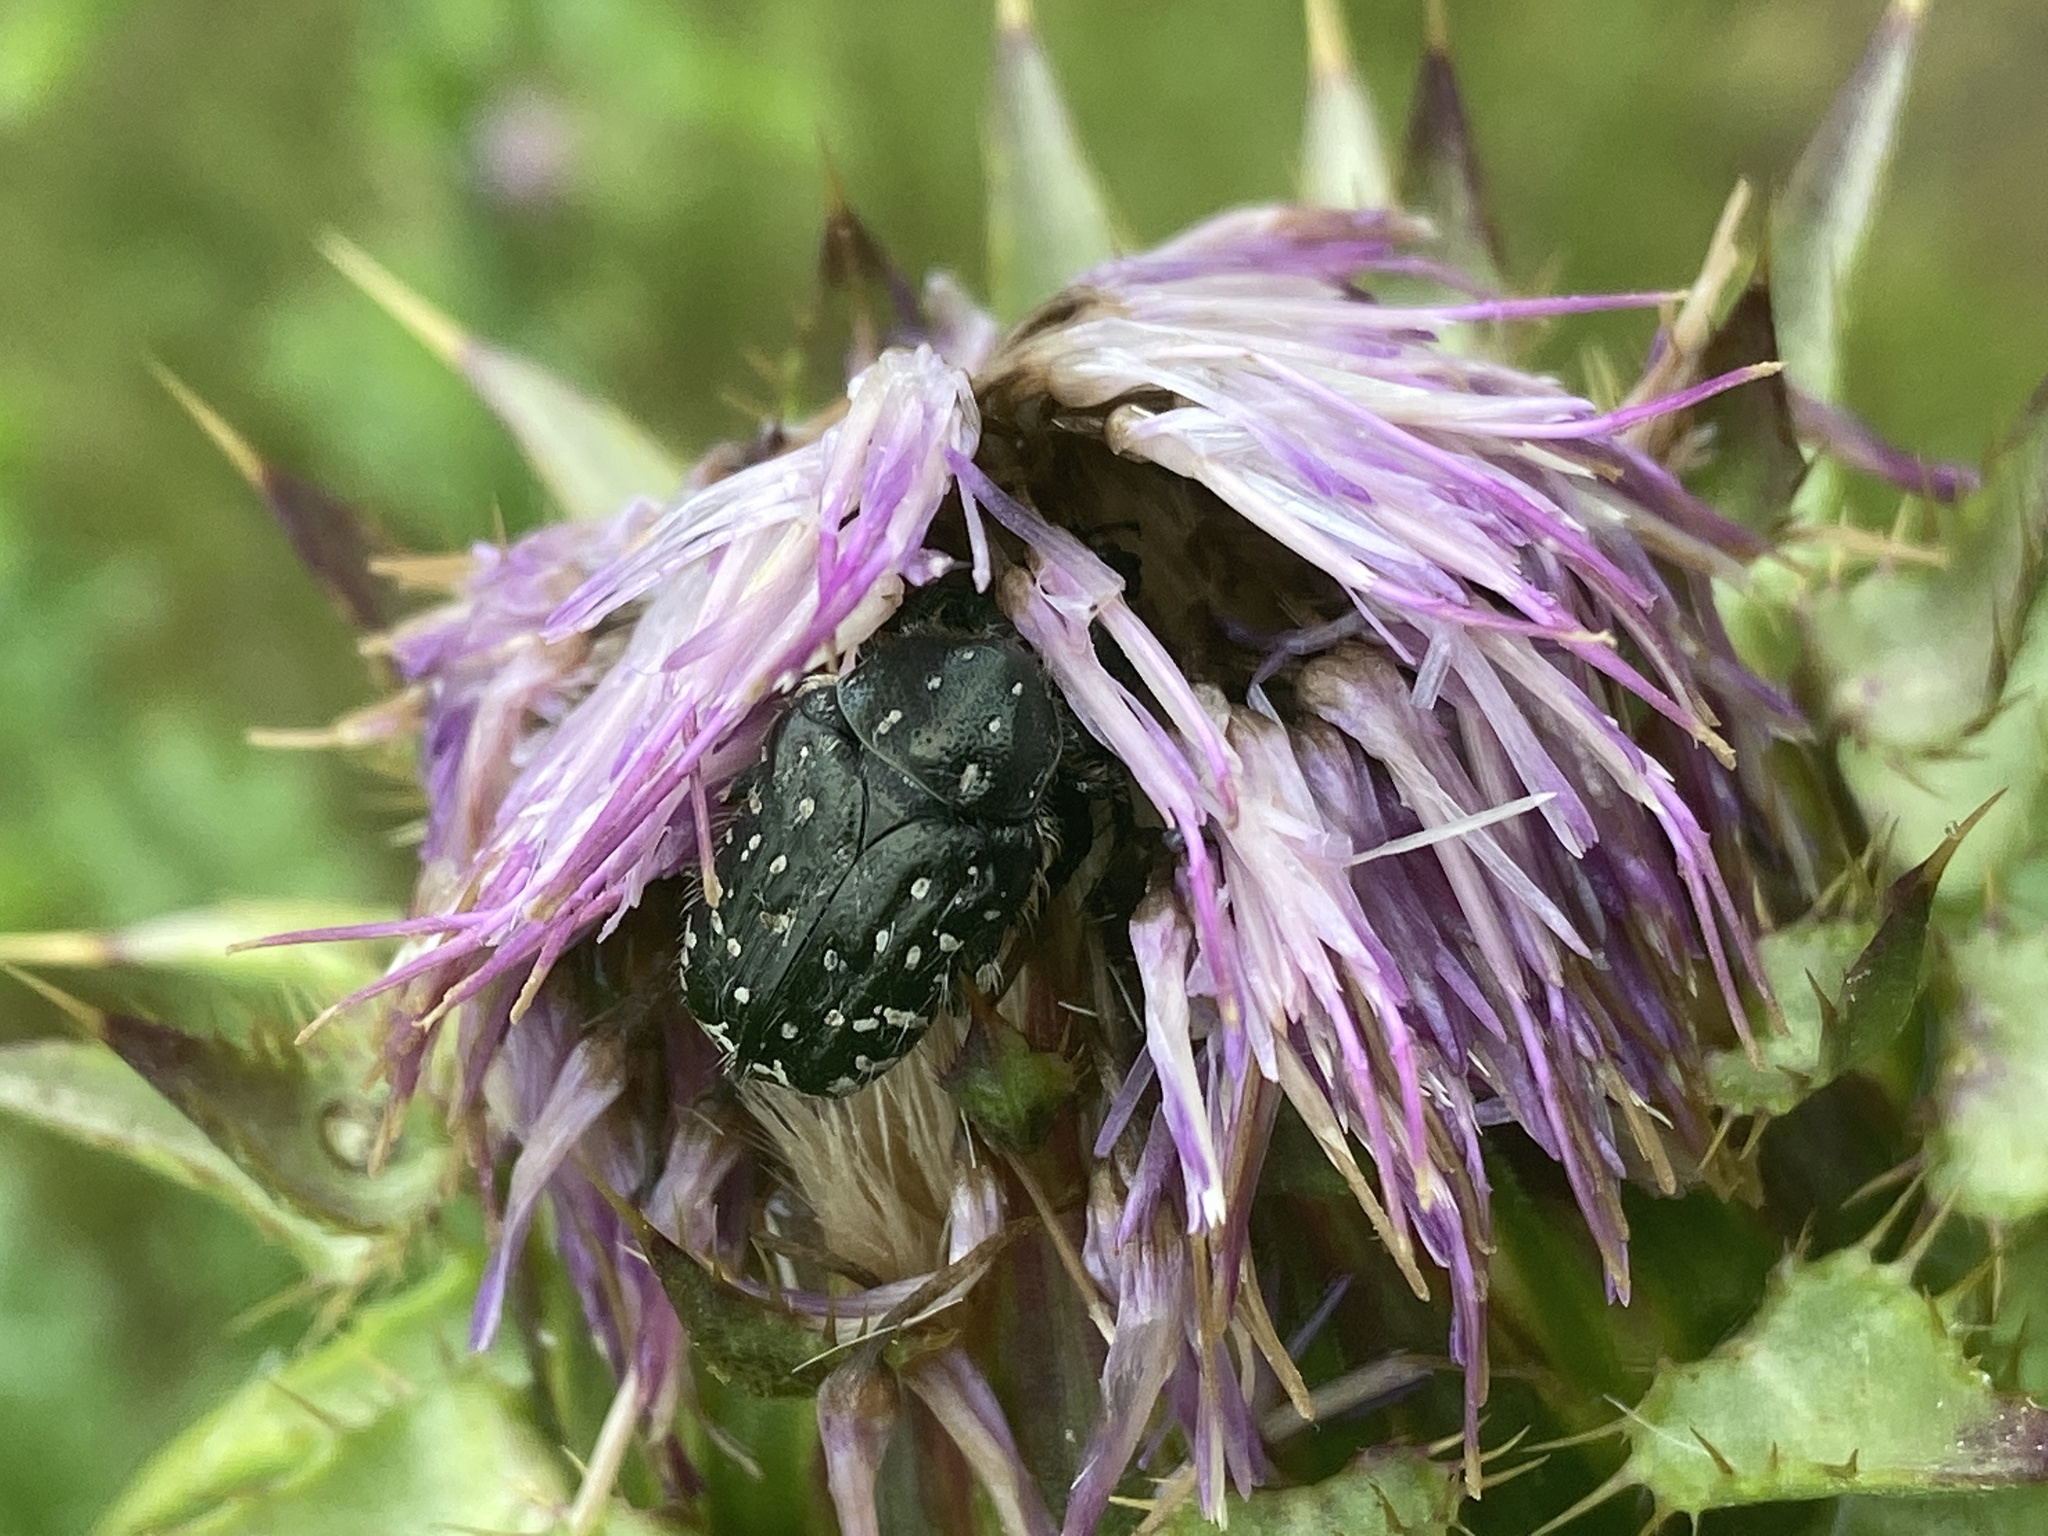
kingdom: Animalia
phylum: Arthropoda
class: Insecta
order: Coleoptera
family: Scarabaeidae
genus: Oxythyrea
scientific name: Oxythyrea funesta
